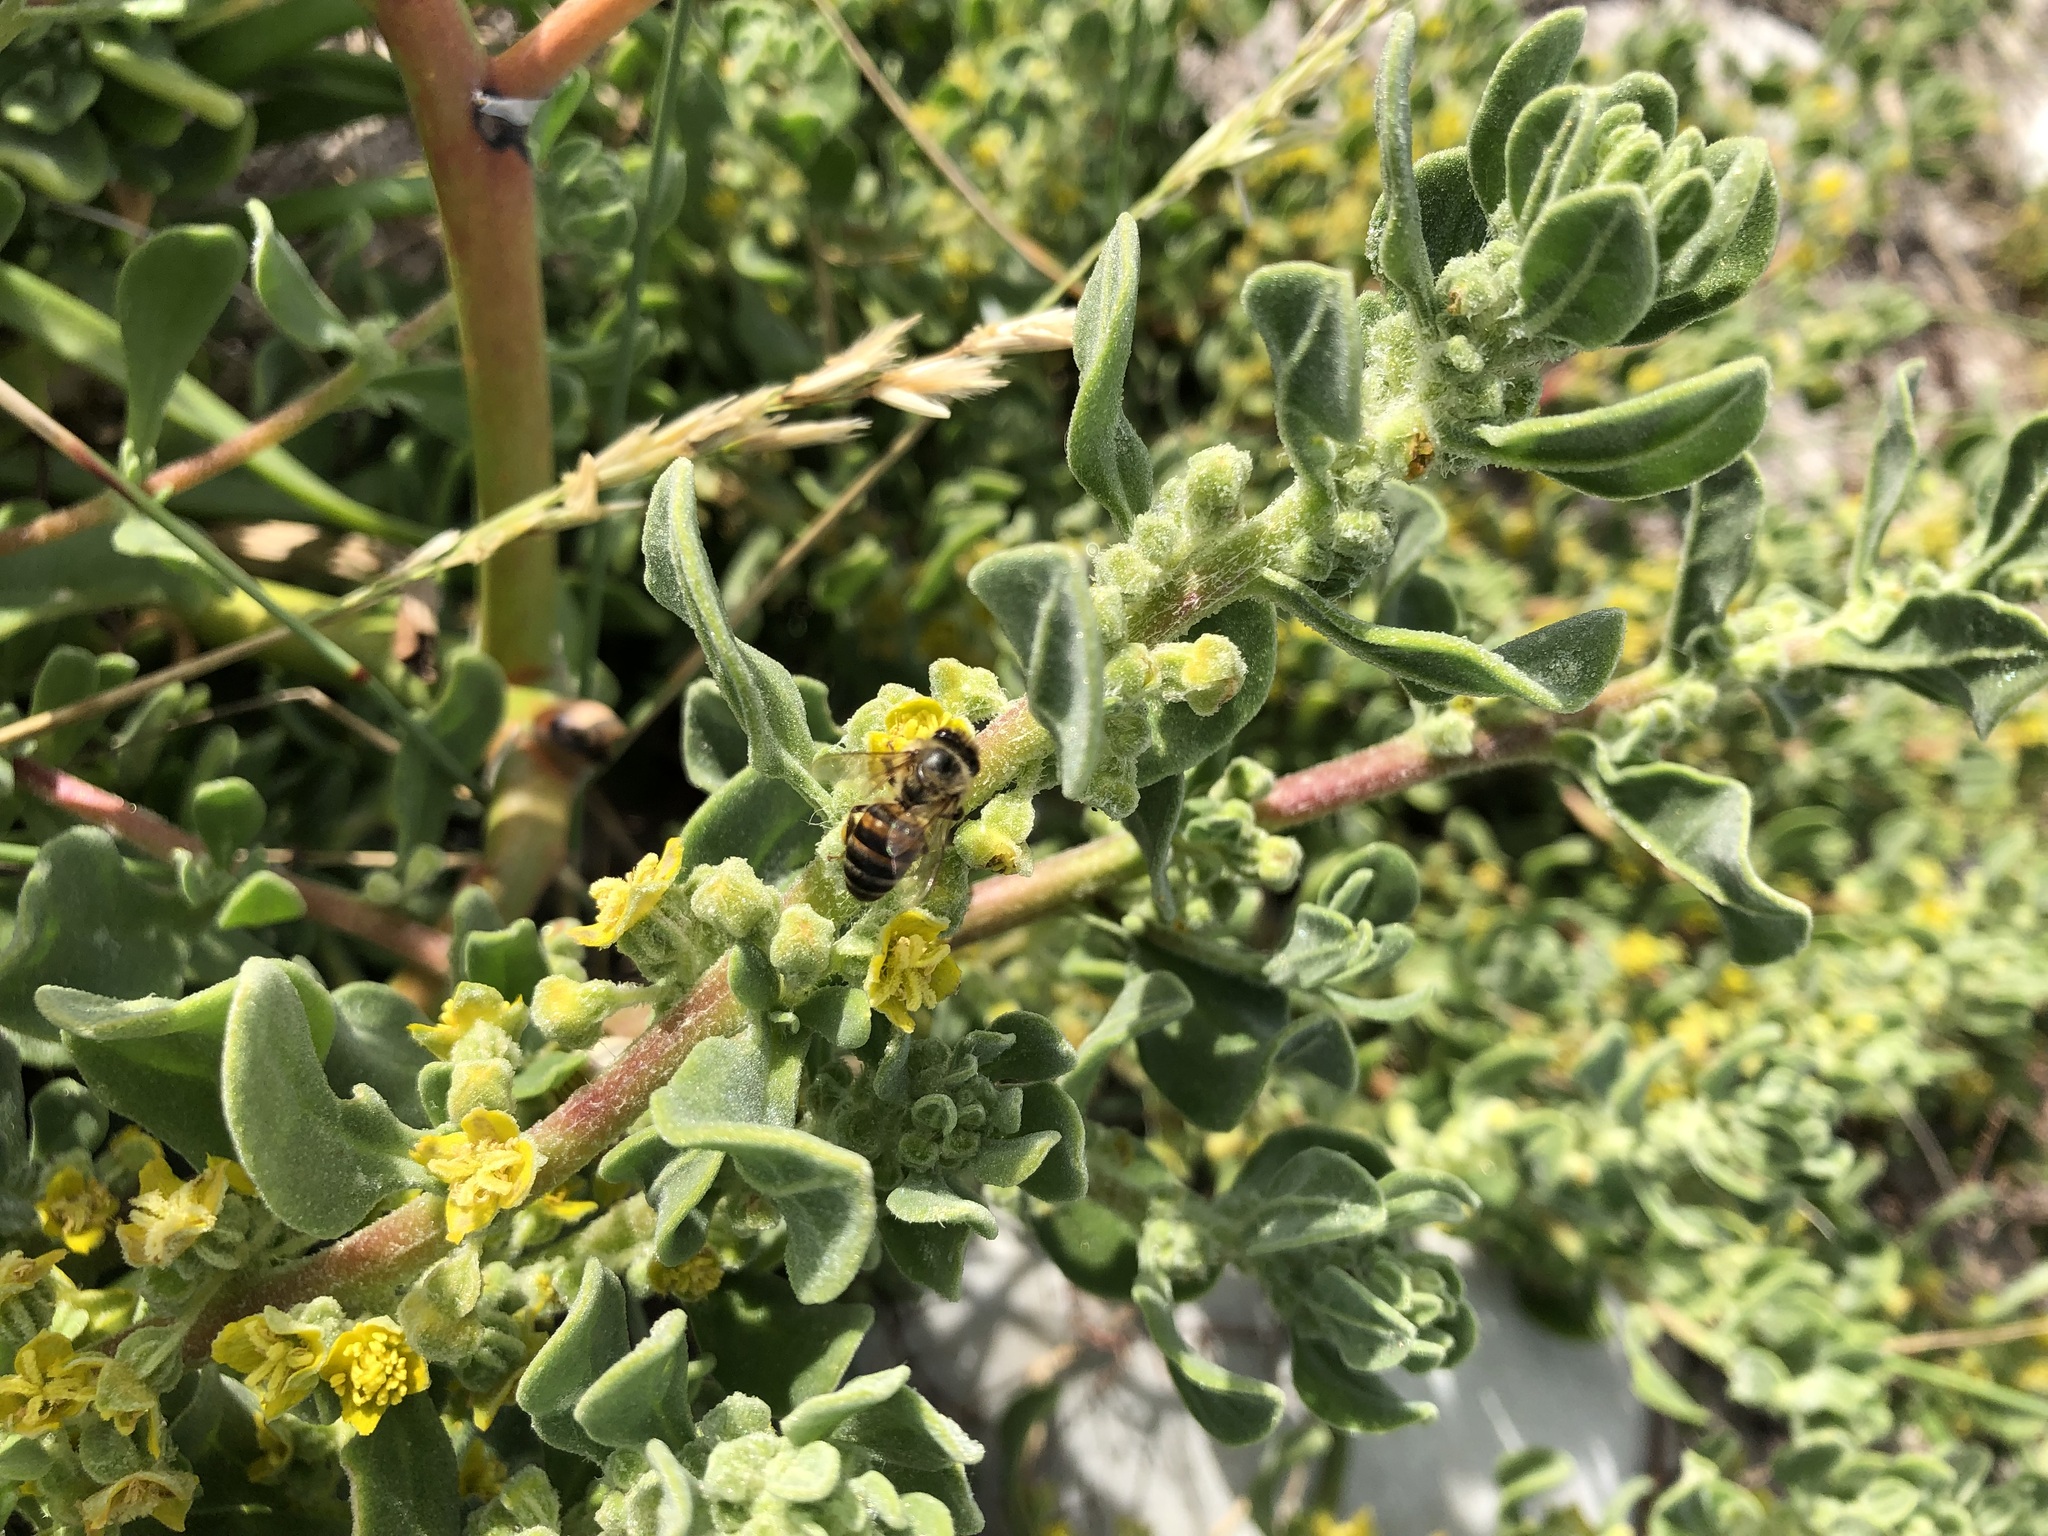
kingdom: Animalia
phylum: Arthropoda
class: Insecta
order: Hymenoptera
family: Apidae
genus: Apis
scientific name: Apis mellifera
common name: Honey bee
